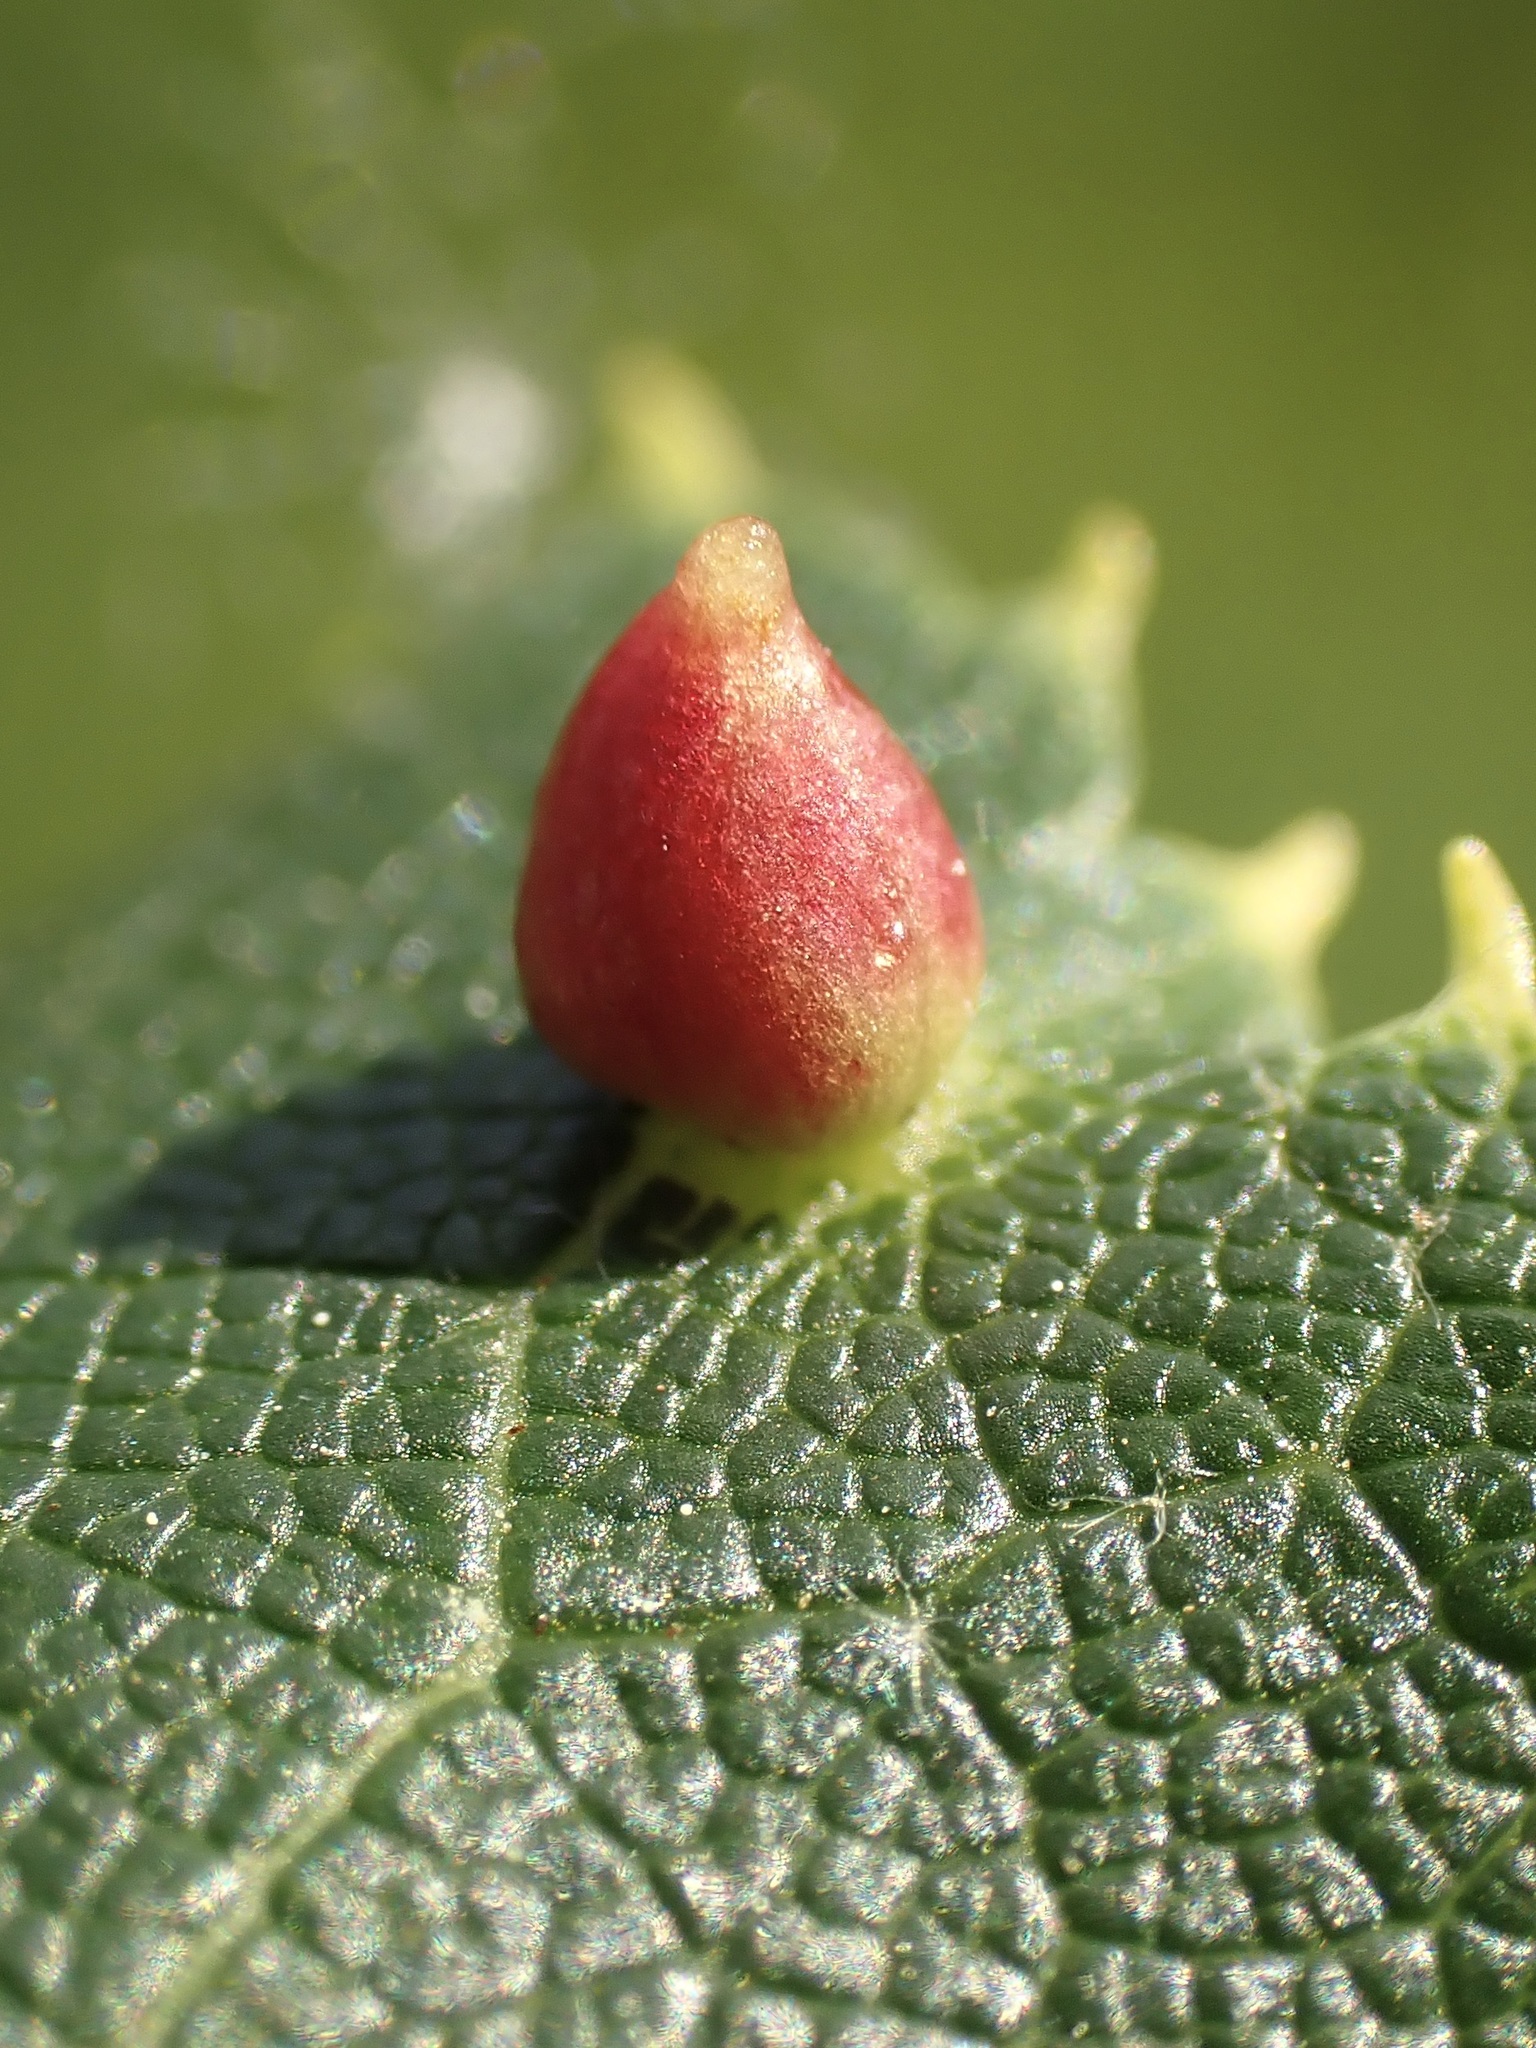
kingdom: Animalia
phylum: Arthropoda
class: Arachnida
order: Trombidiformes
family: Eriophyidae
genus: Eriophyes
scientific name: Eriophyes tiliae
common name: Red nail gall mite
